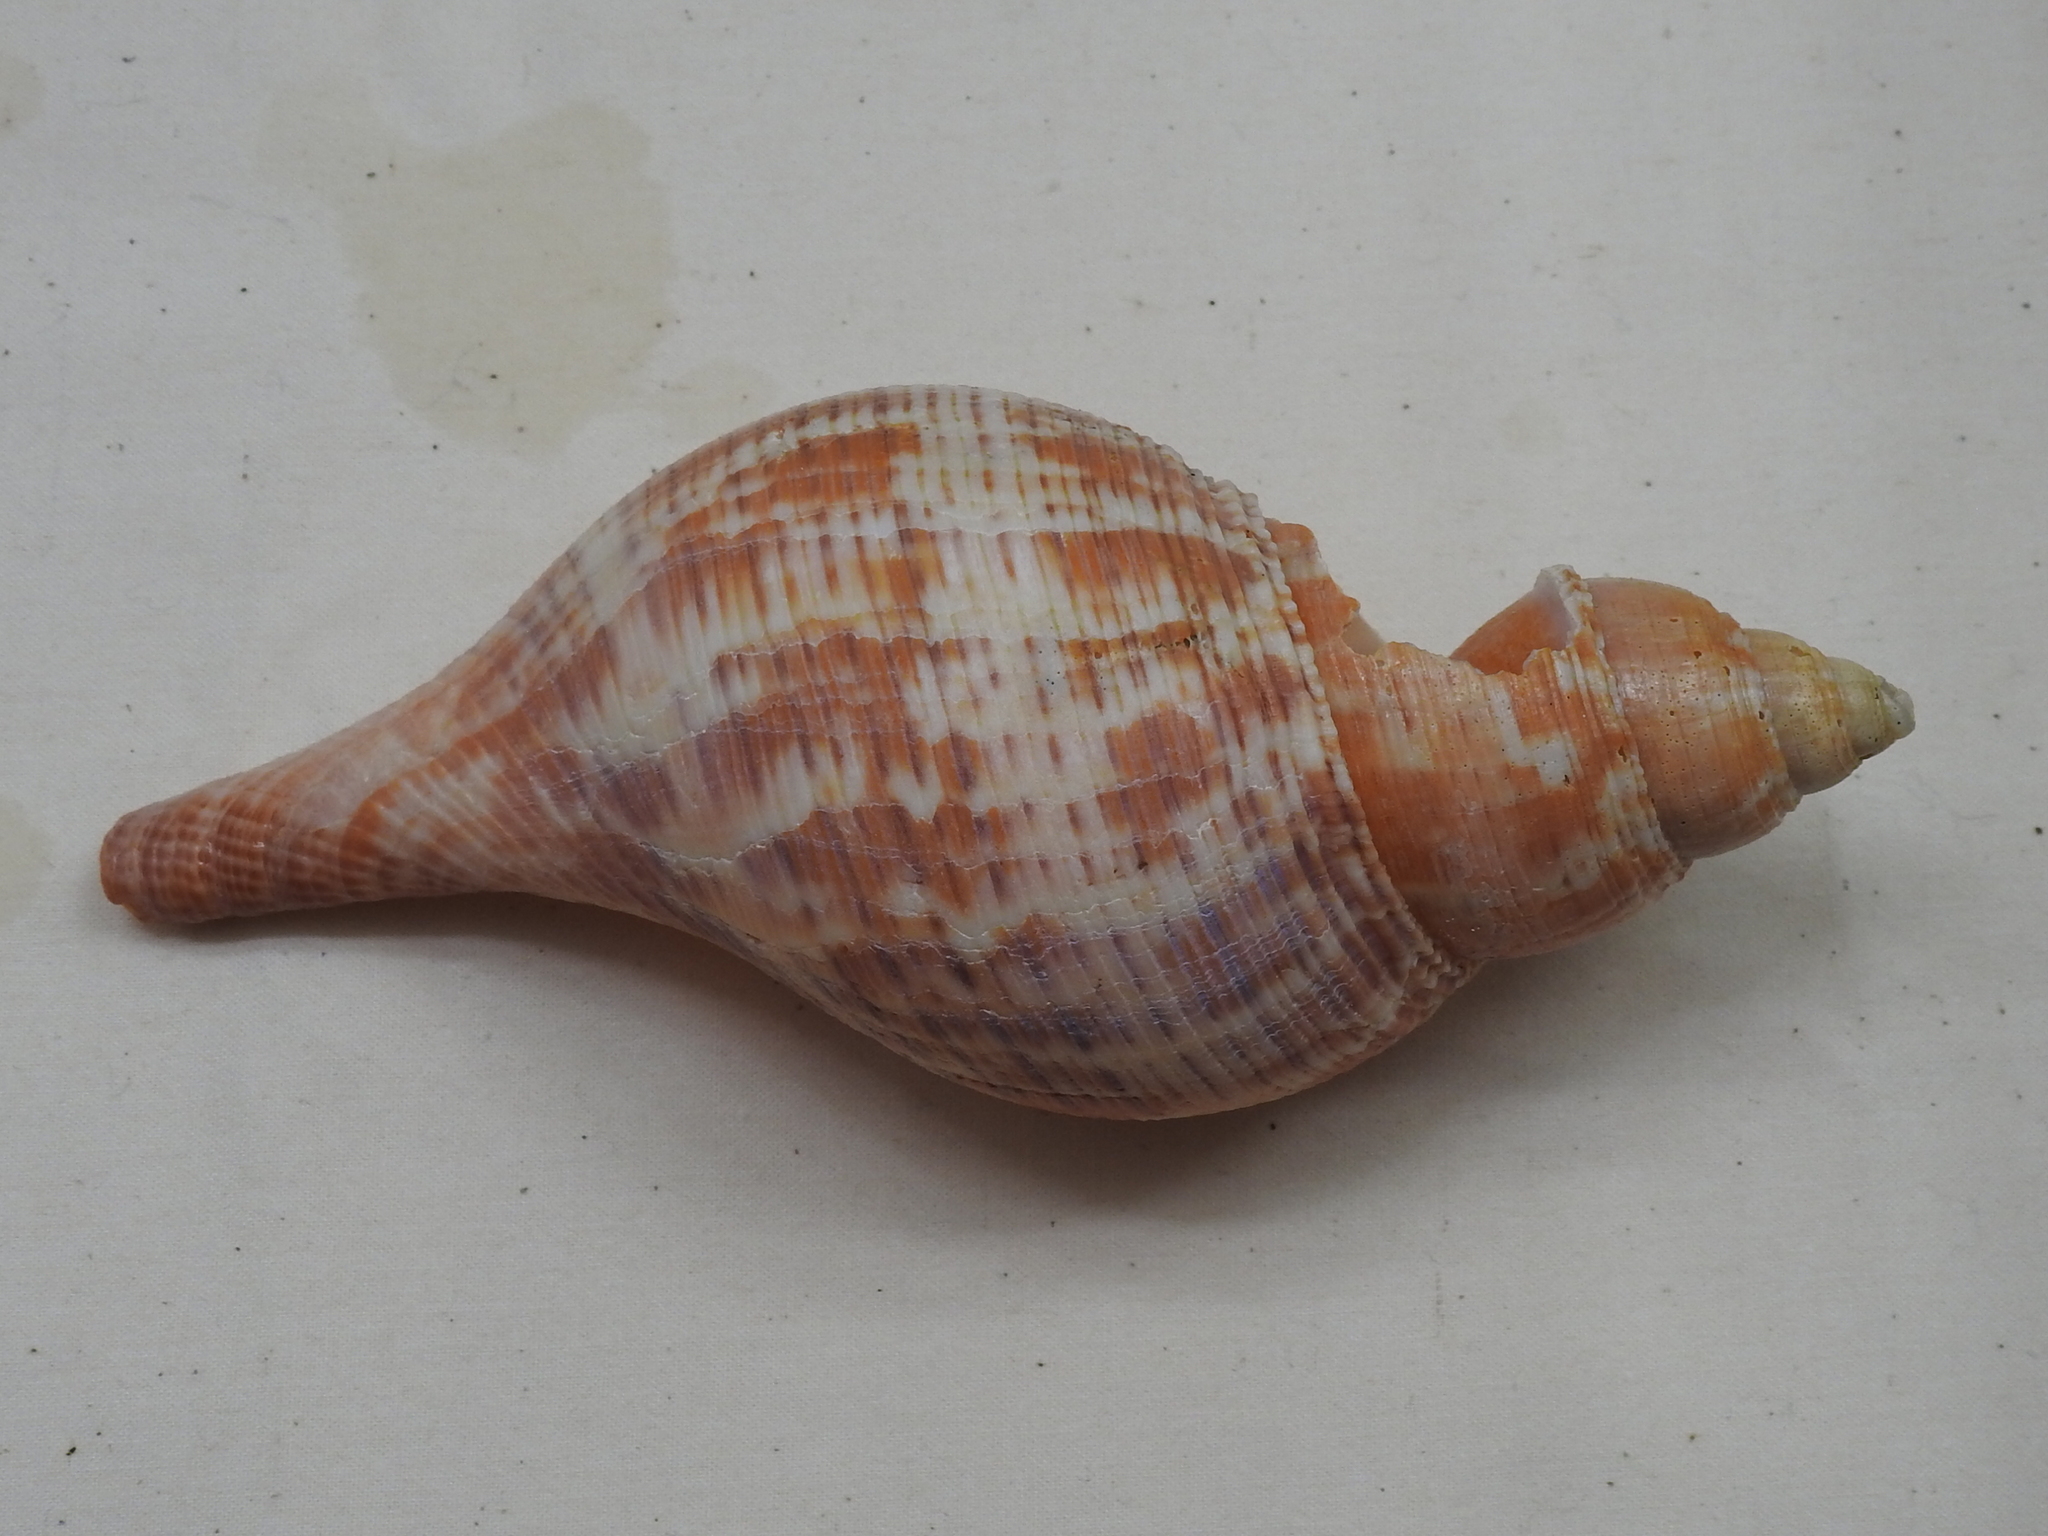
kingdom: Animalia
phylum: Mollusca
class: Gastropoda
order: Neogastropoda
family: Fasciolariidae
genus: Fasciolaria
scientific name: Fasciolaria tulipa
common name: True tulip
